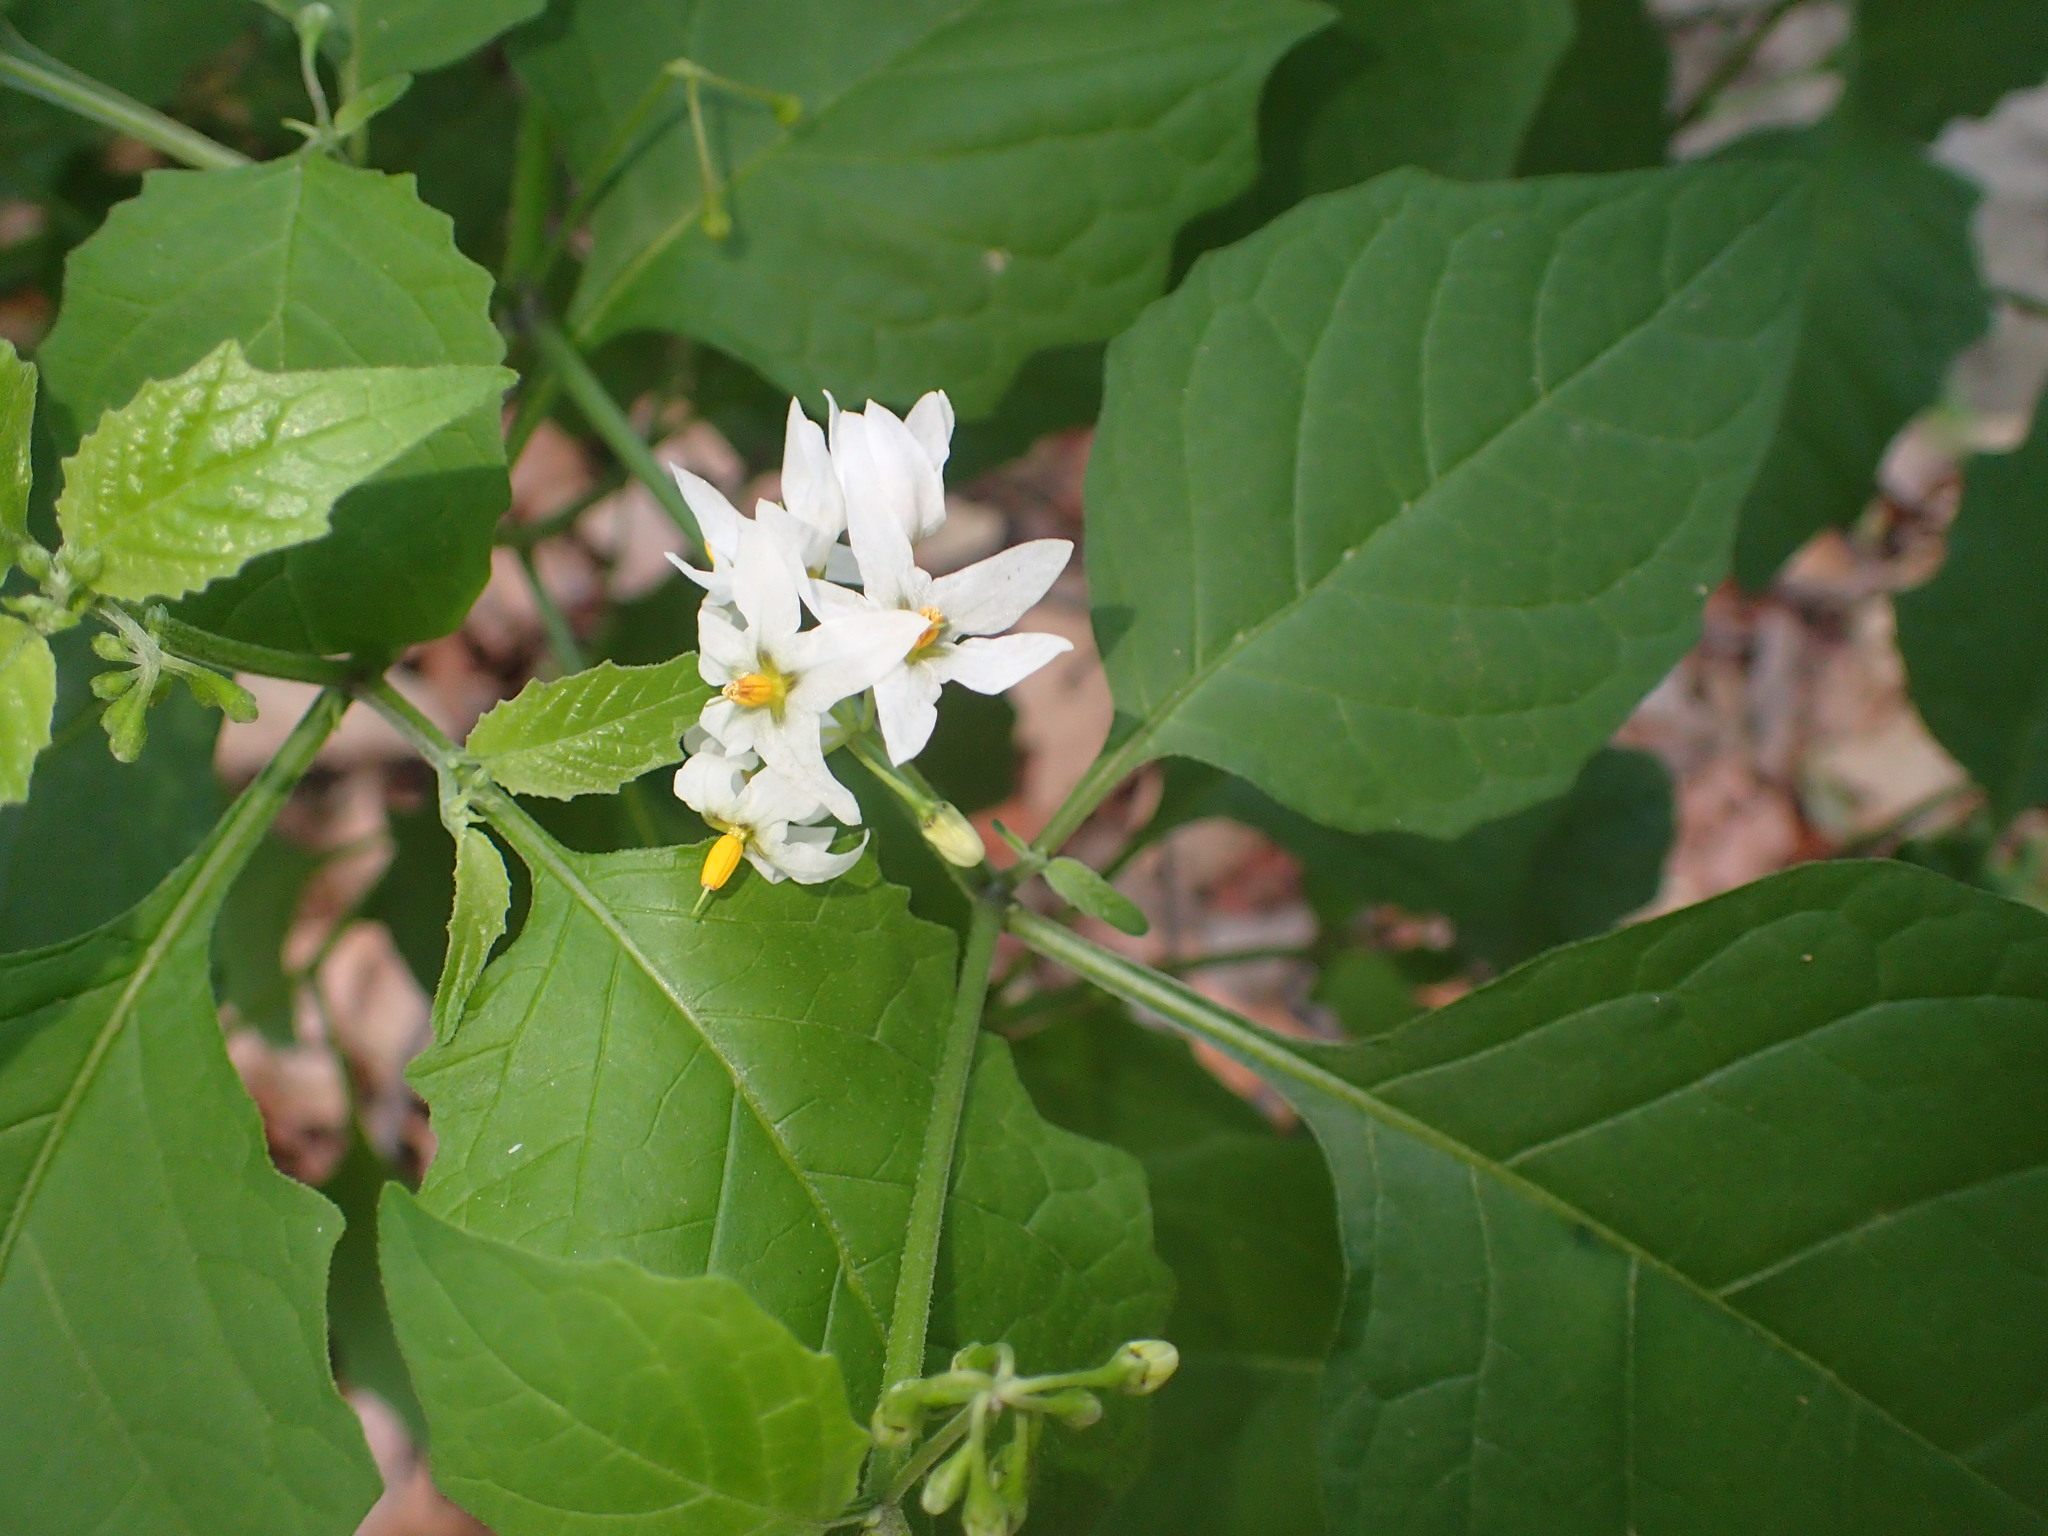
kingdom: Plantae
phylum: Tracheophyta
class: Magnoliopsida
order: Solanales
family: Solanaceae
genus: Solanum
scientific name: Solanum douglasii
